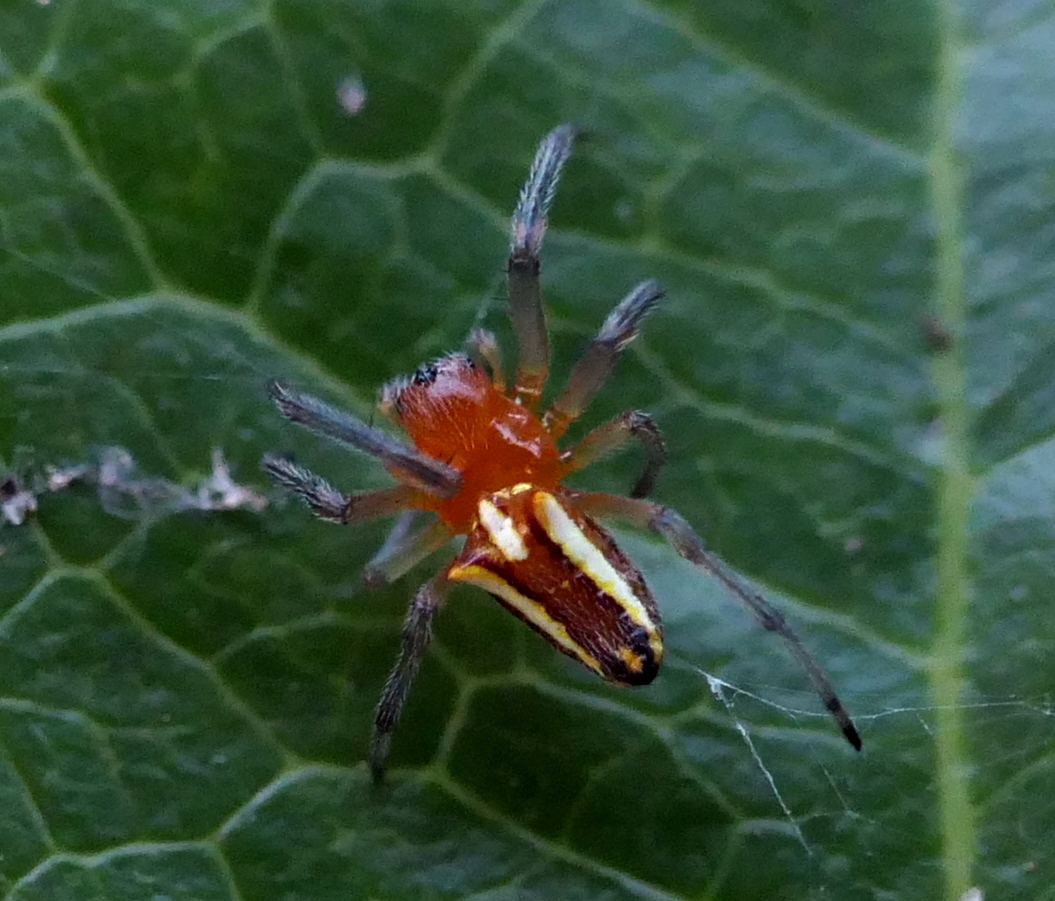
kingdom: Animalia
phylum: Arthropoda
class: Arachnida
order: Araneae
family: Araneidae
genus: Alpaida
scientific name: Alpaida bicornuta
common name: Orb weavers
